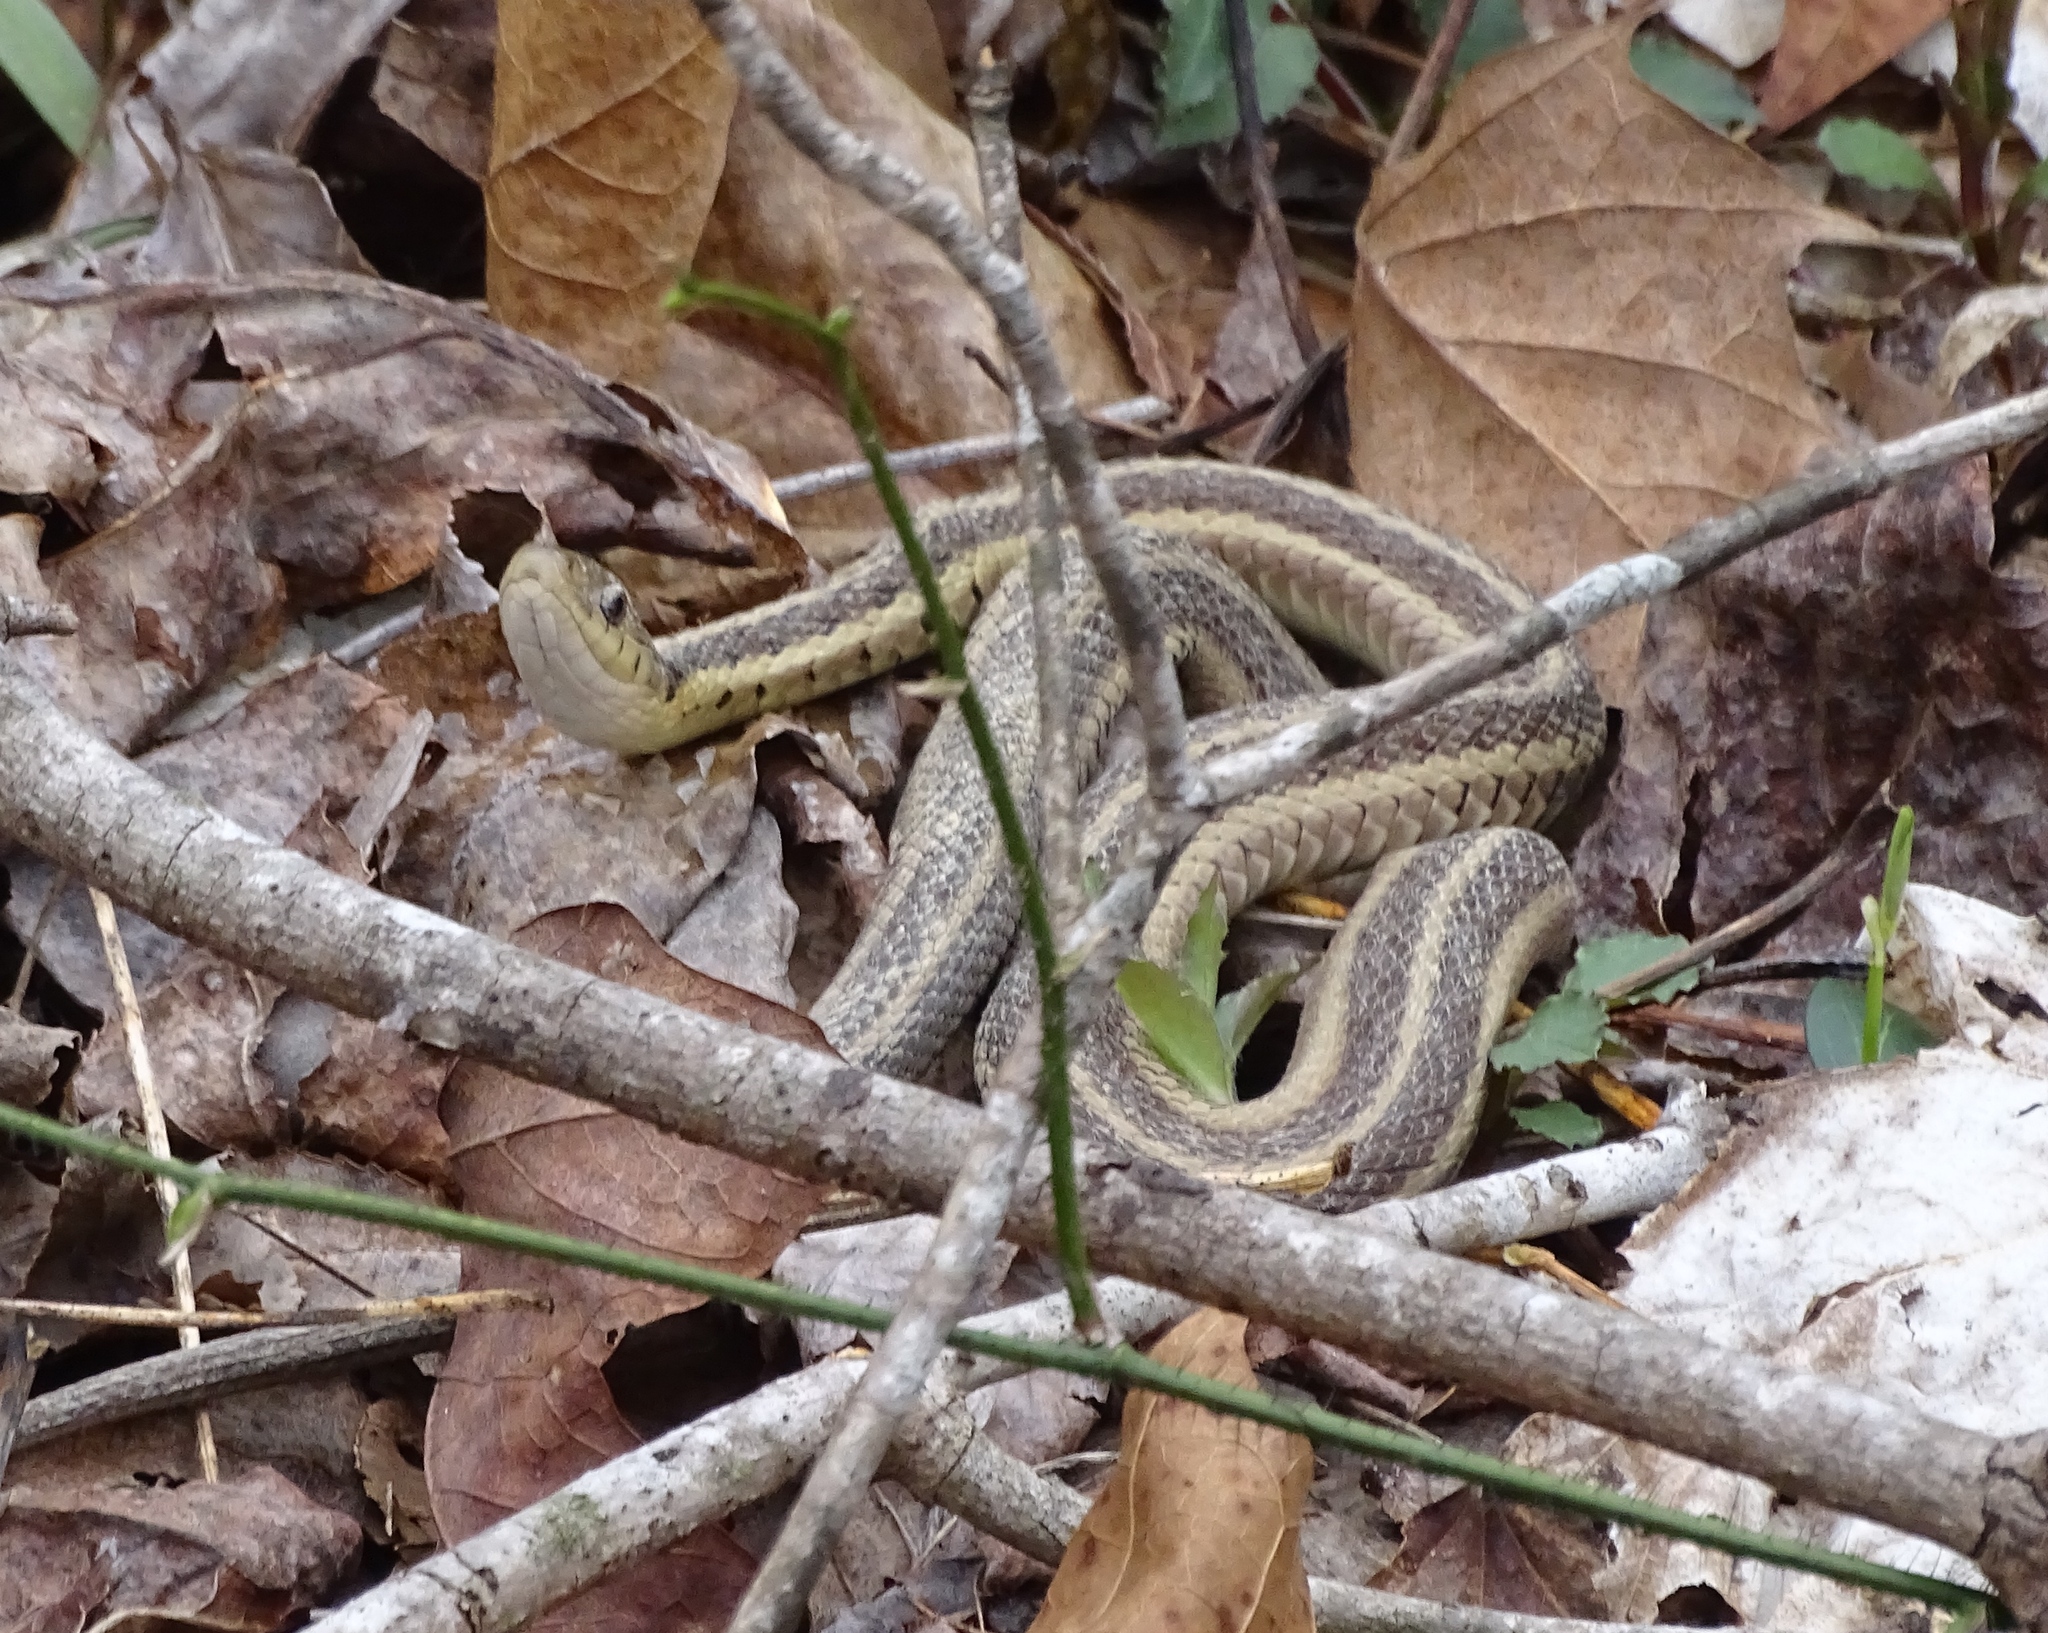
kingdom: Animalia
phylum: Chordata
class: Squamata
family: Colubridae
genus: Thamnophis
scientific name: Thamnophis sirtalis
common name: Common garter snake
